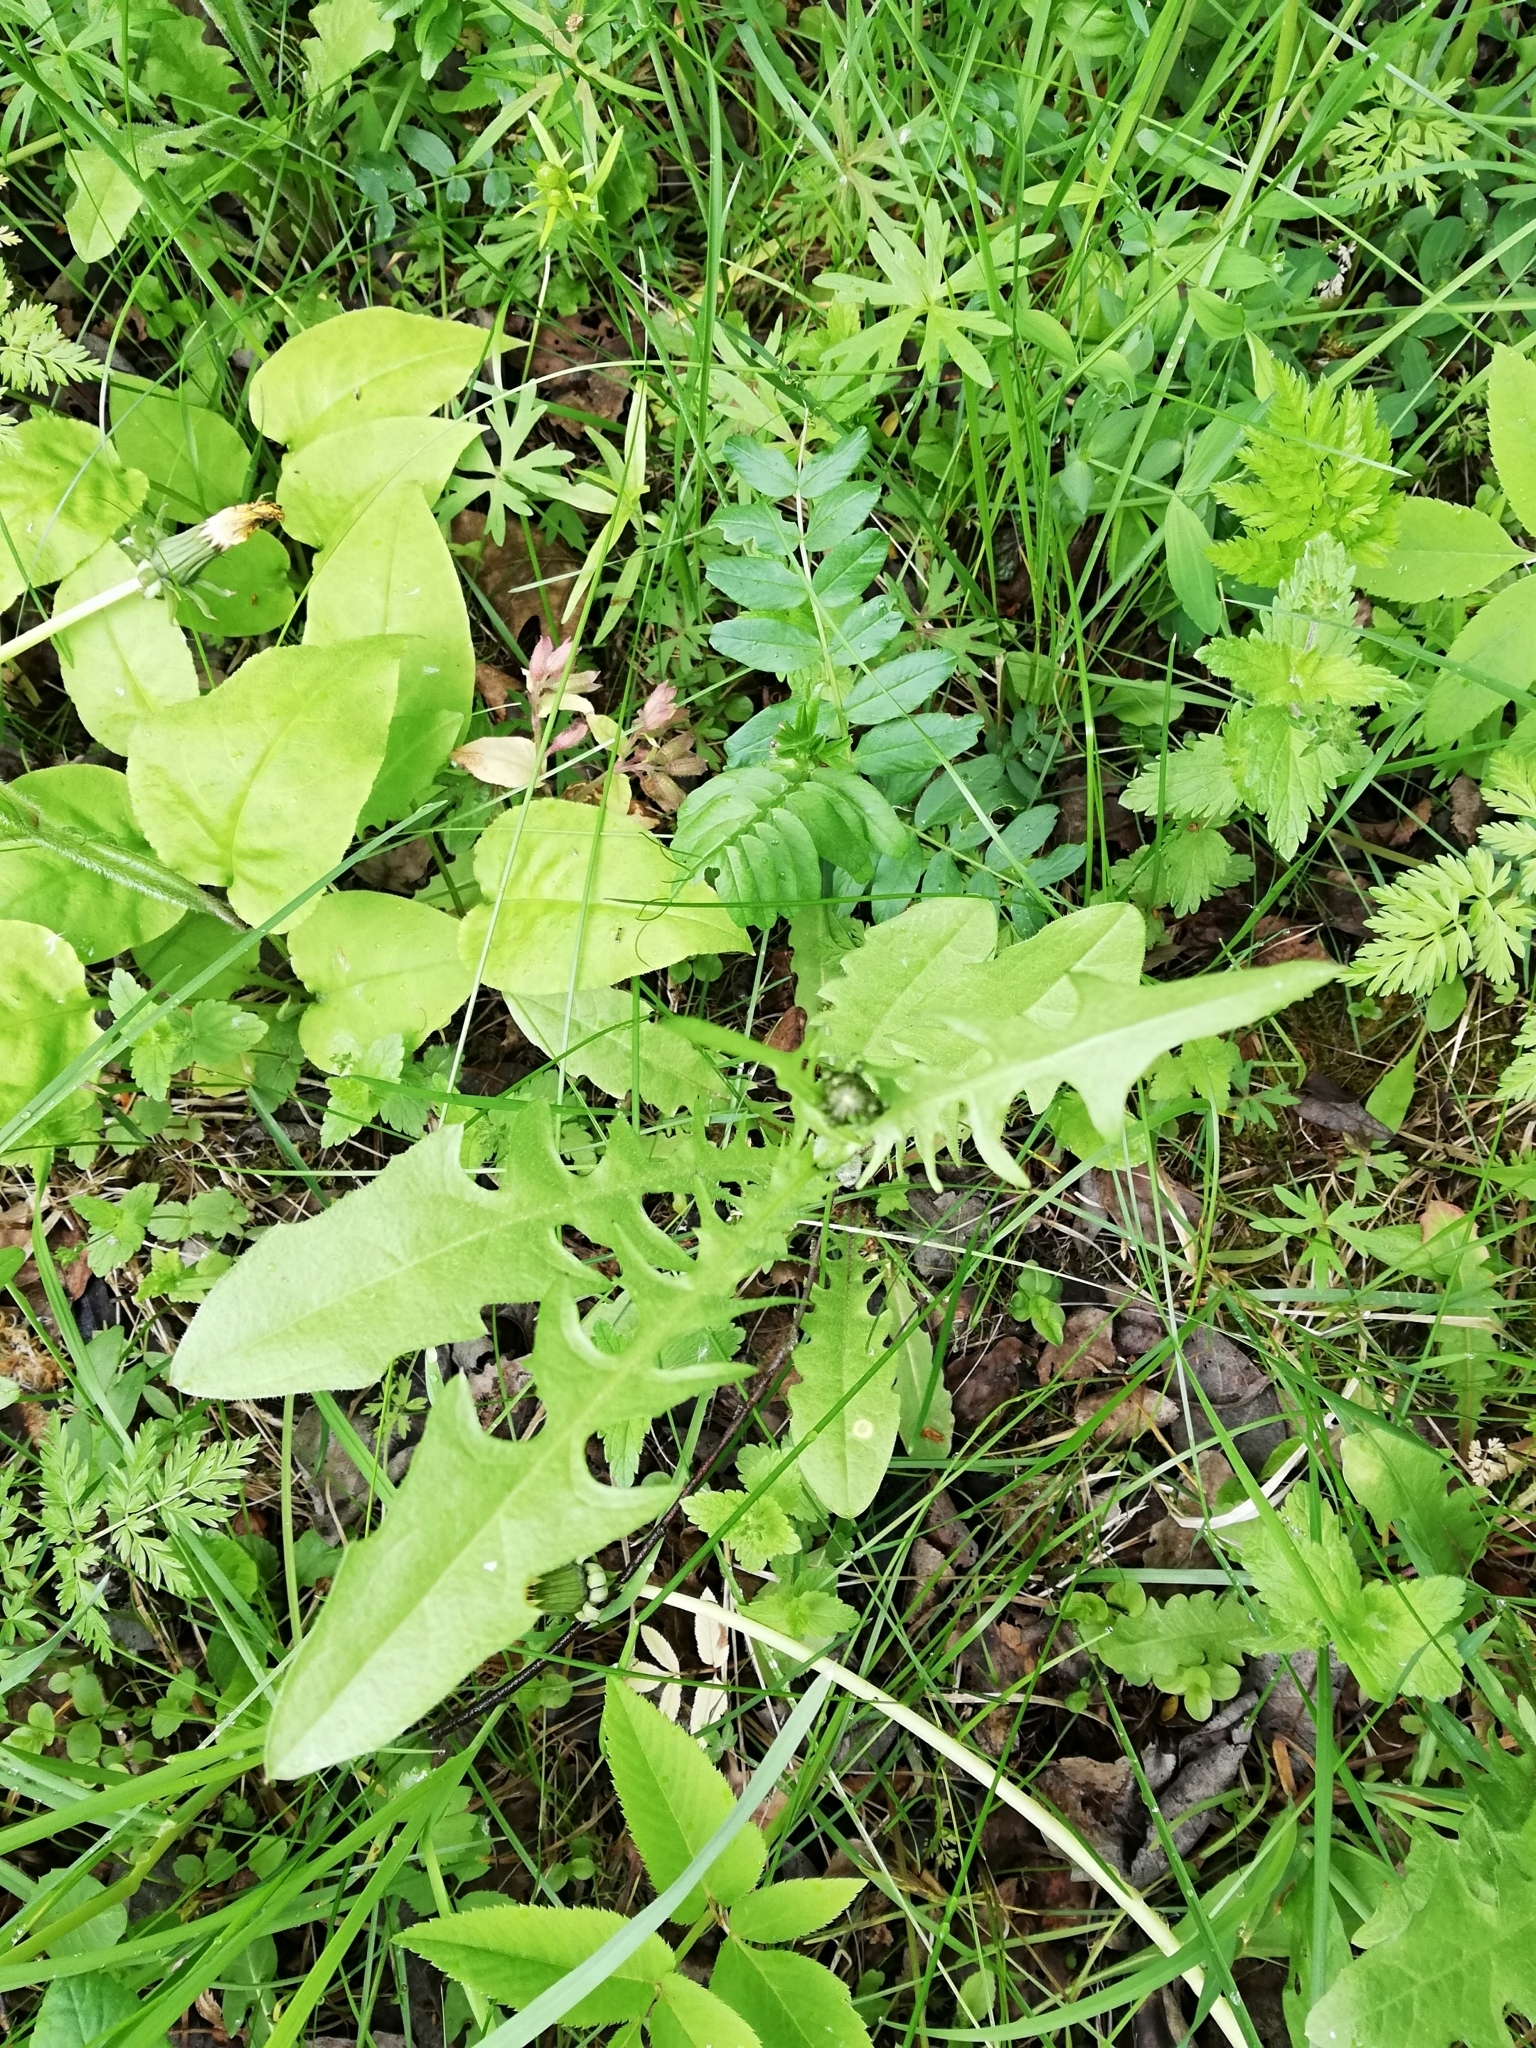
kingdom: Plantae
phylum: Tracheophyta
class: Magnoliopsida
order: Asterales
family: Asteraceae
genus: Crepis
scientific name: Crepis biennis
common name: Rough hawk's-beard
